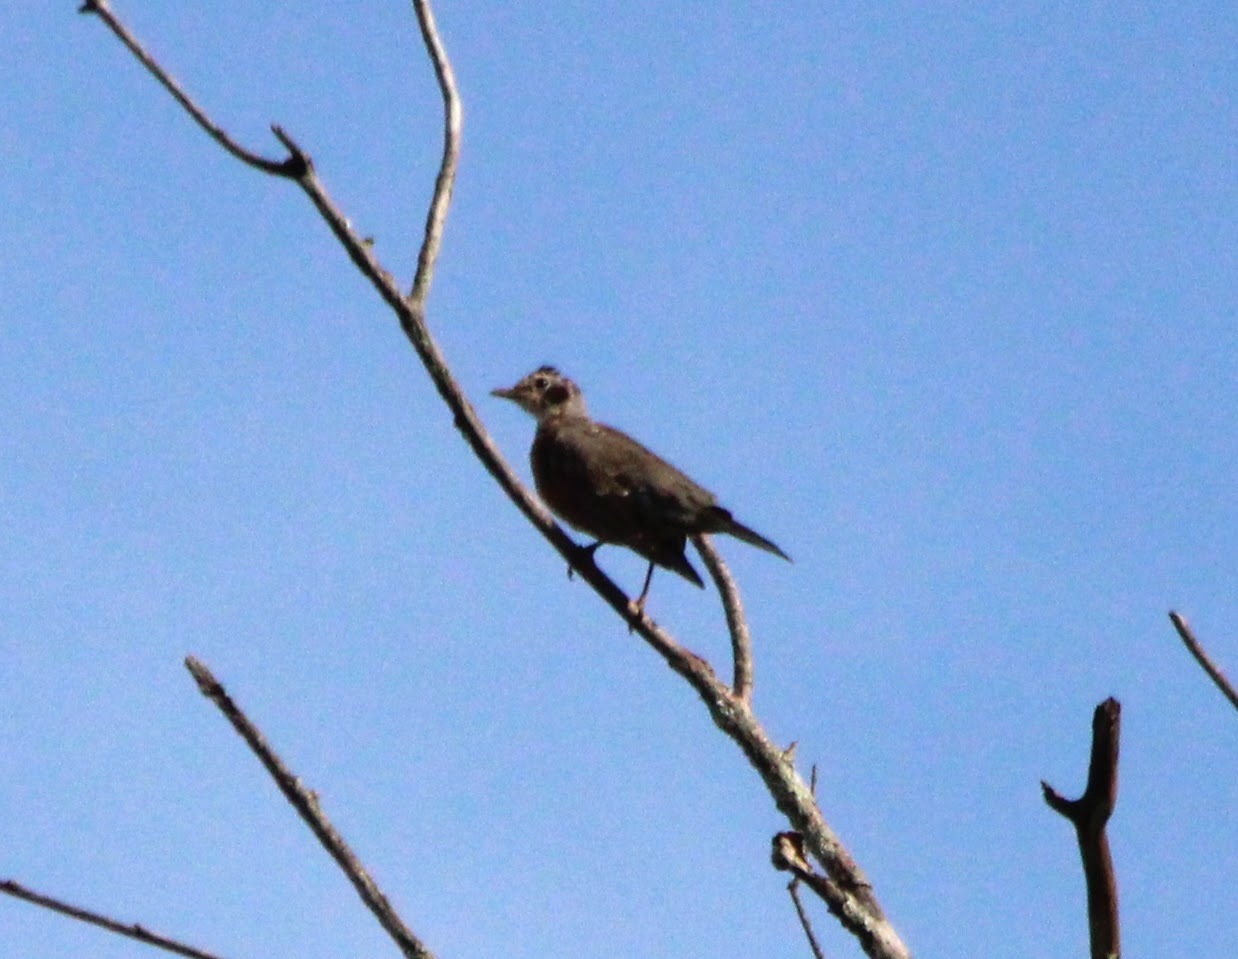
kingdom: Animalia
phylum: Chordata
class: Aves
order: Passeriformes
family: Turdidae
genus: Turdus
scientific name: Turdus migratorius
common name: American robin
